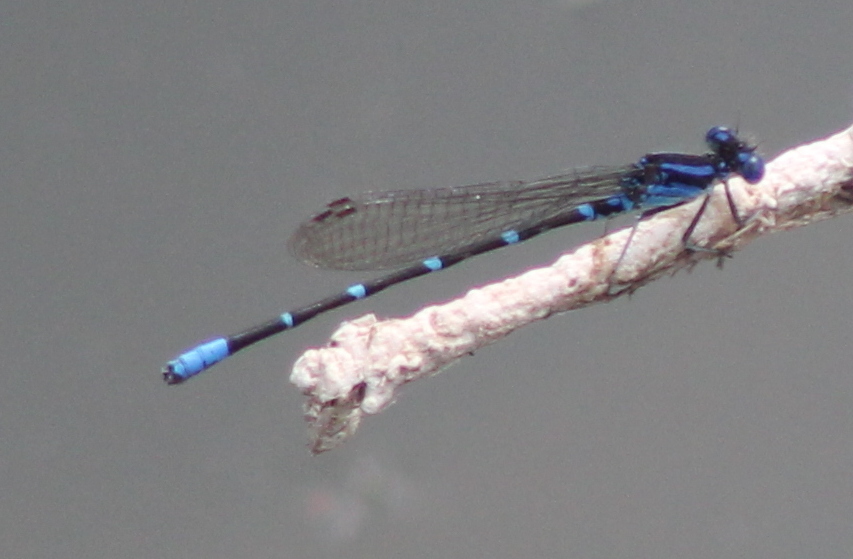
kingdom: Animalia
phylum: Arthropoda
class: Insecta
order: Odonata
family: Coenagrionidae
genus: Argia
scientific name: Argia sedula
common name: Blue-ringed dancer
